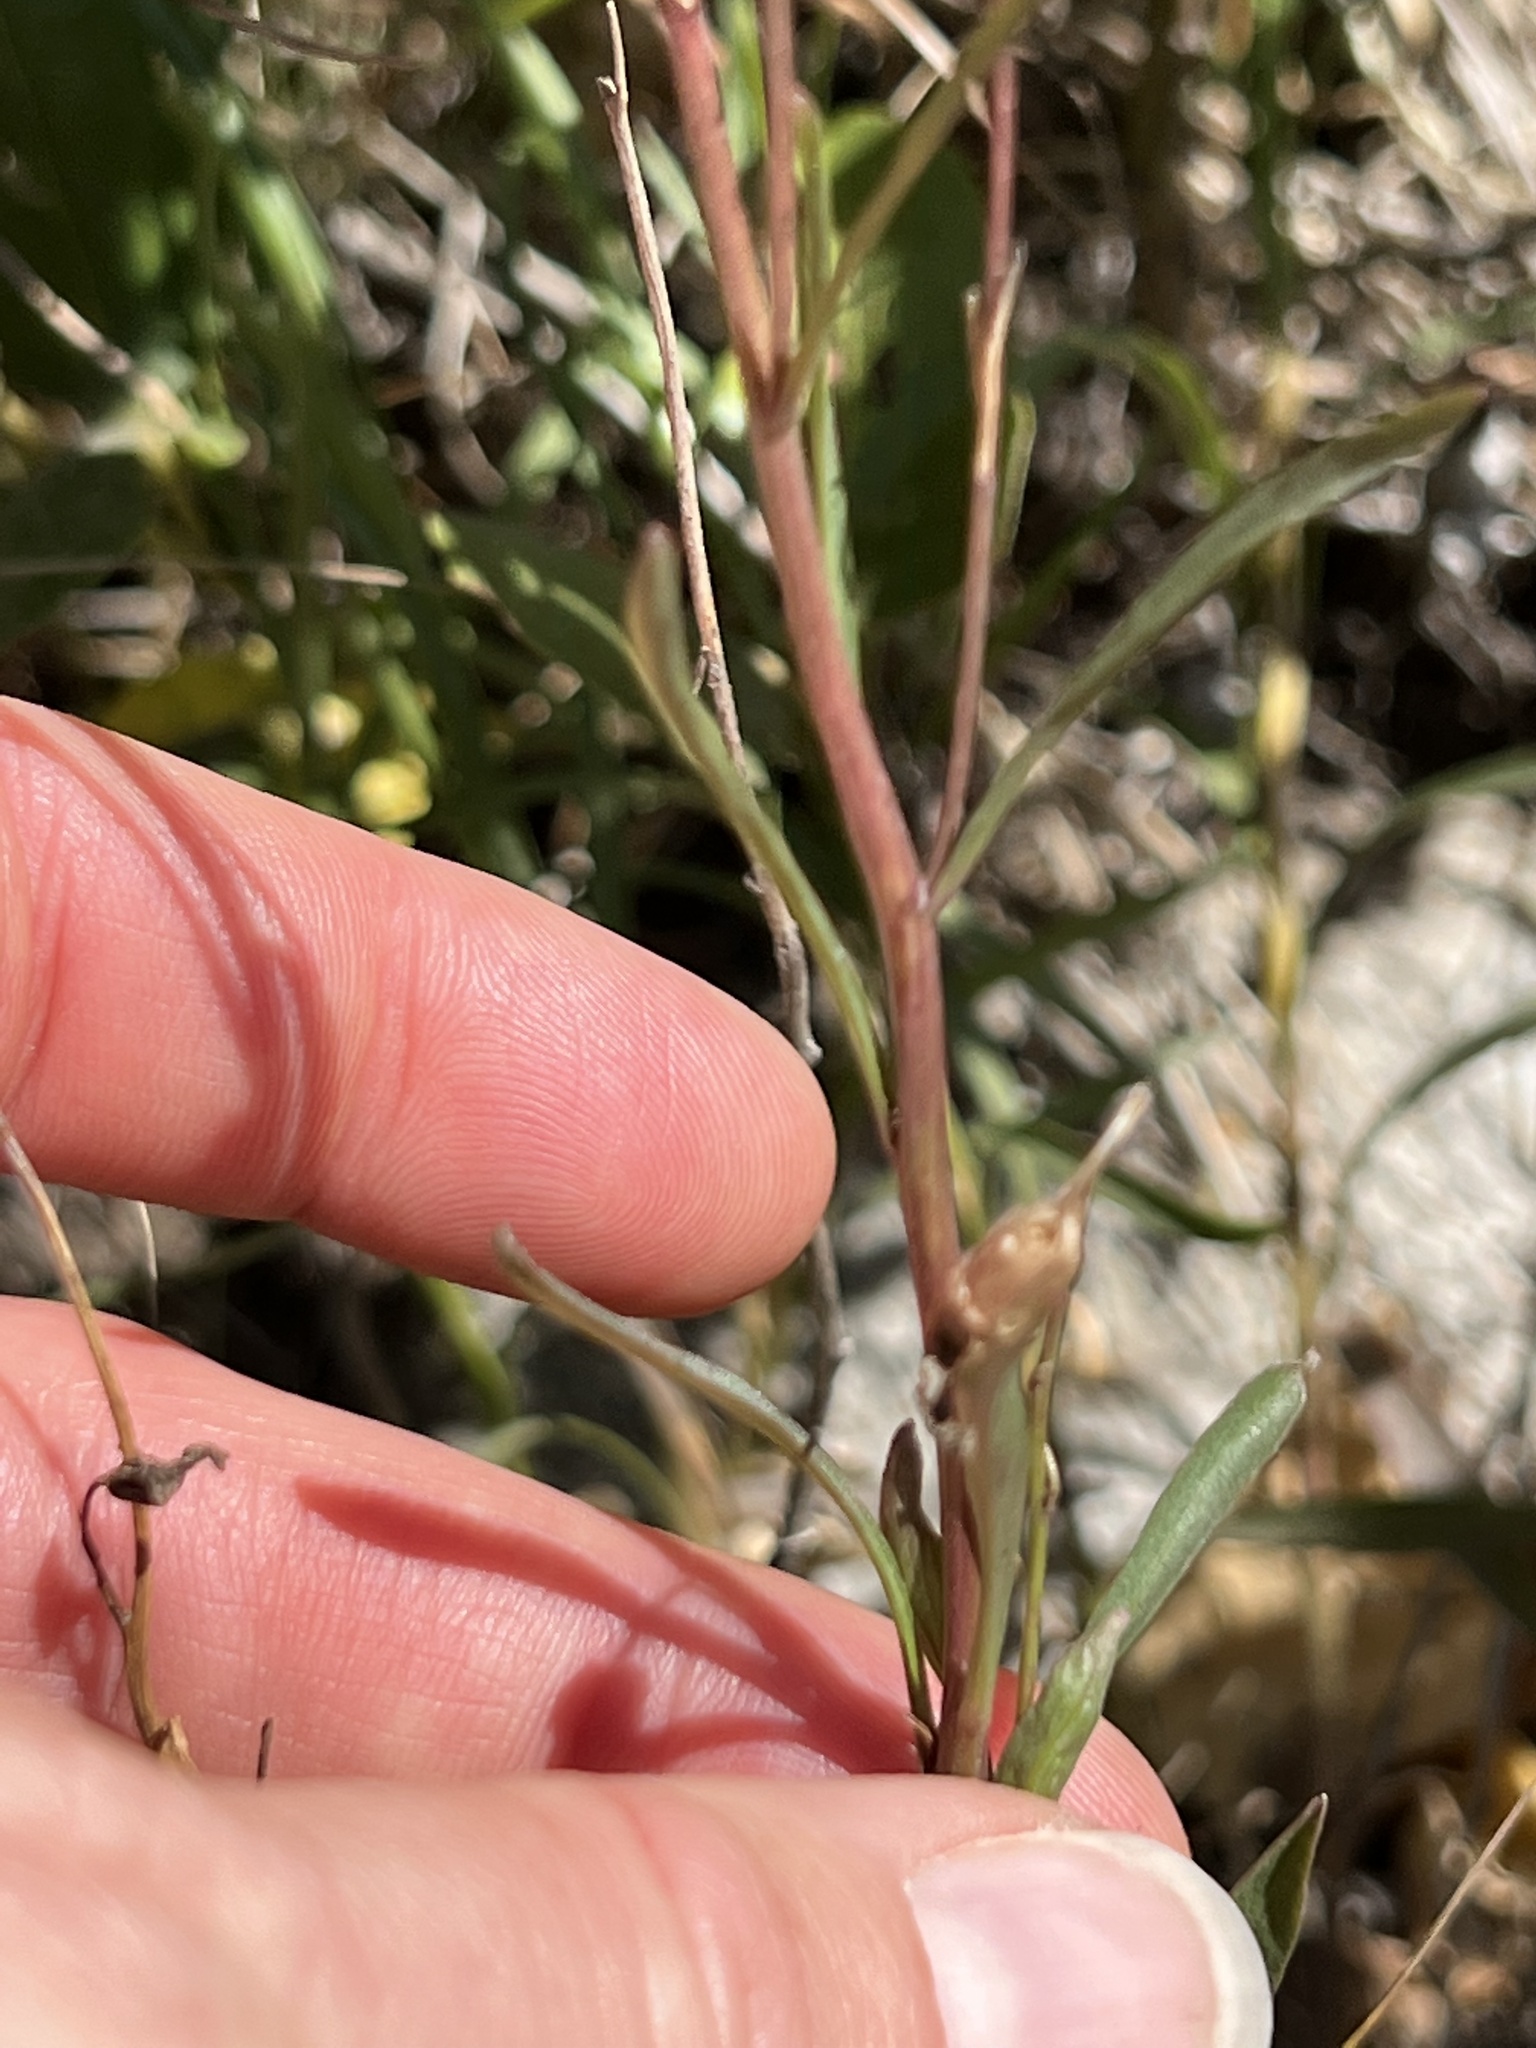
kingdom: Plantae
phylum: Tracheophyta
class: Magnoliopsida
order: Asterales
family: Campanulaceae
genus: Campanula
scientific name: Campanula
